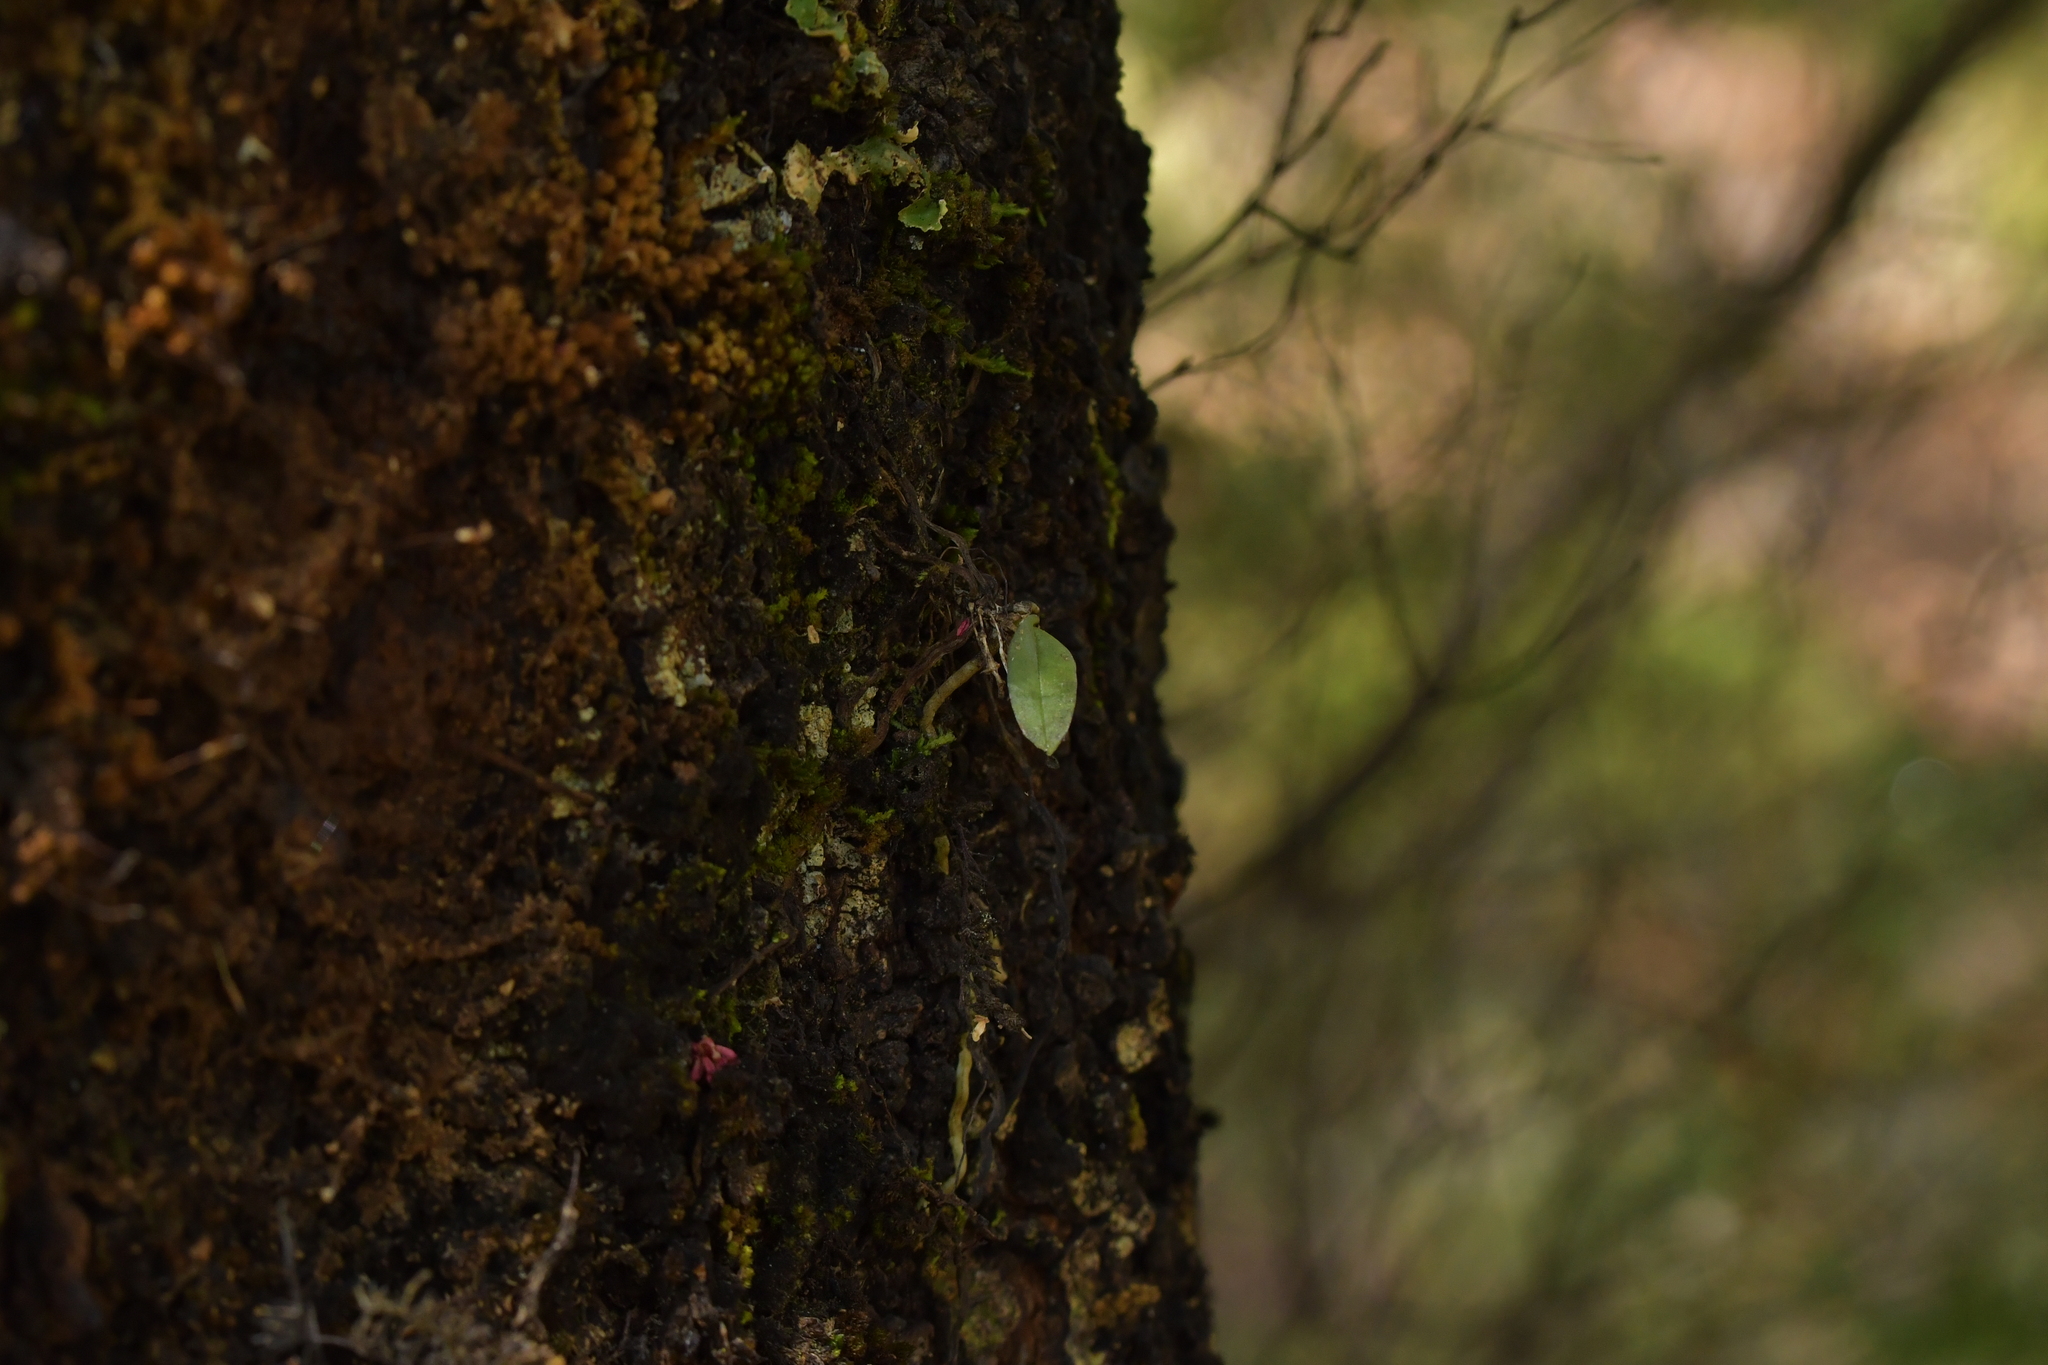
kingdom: Plantae
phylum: Tracheophyta
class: Liliopsida
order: Asparagales
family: Orchidaceae
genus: Drymoanthus
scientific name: Drymoanthus adversus
